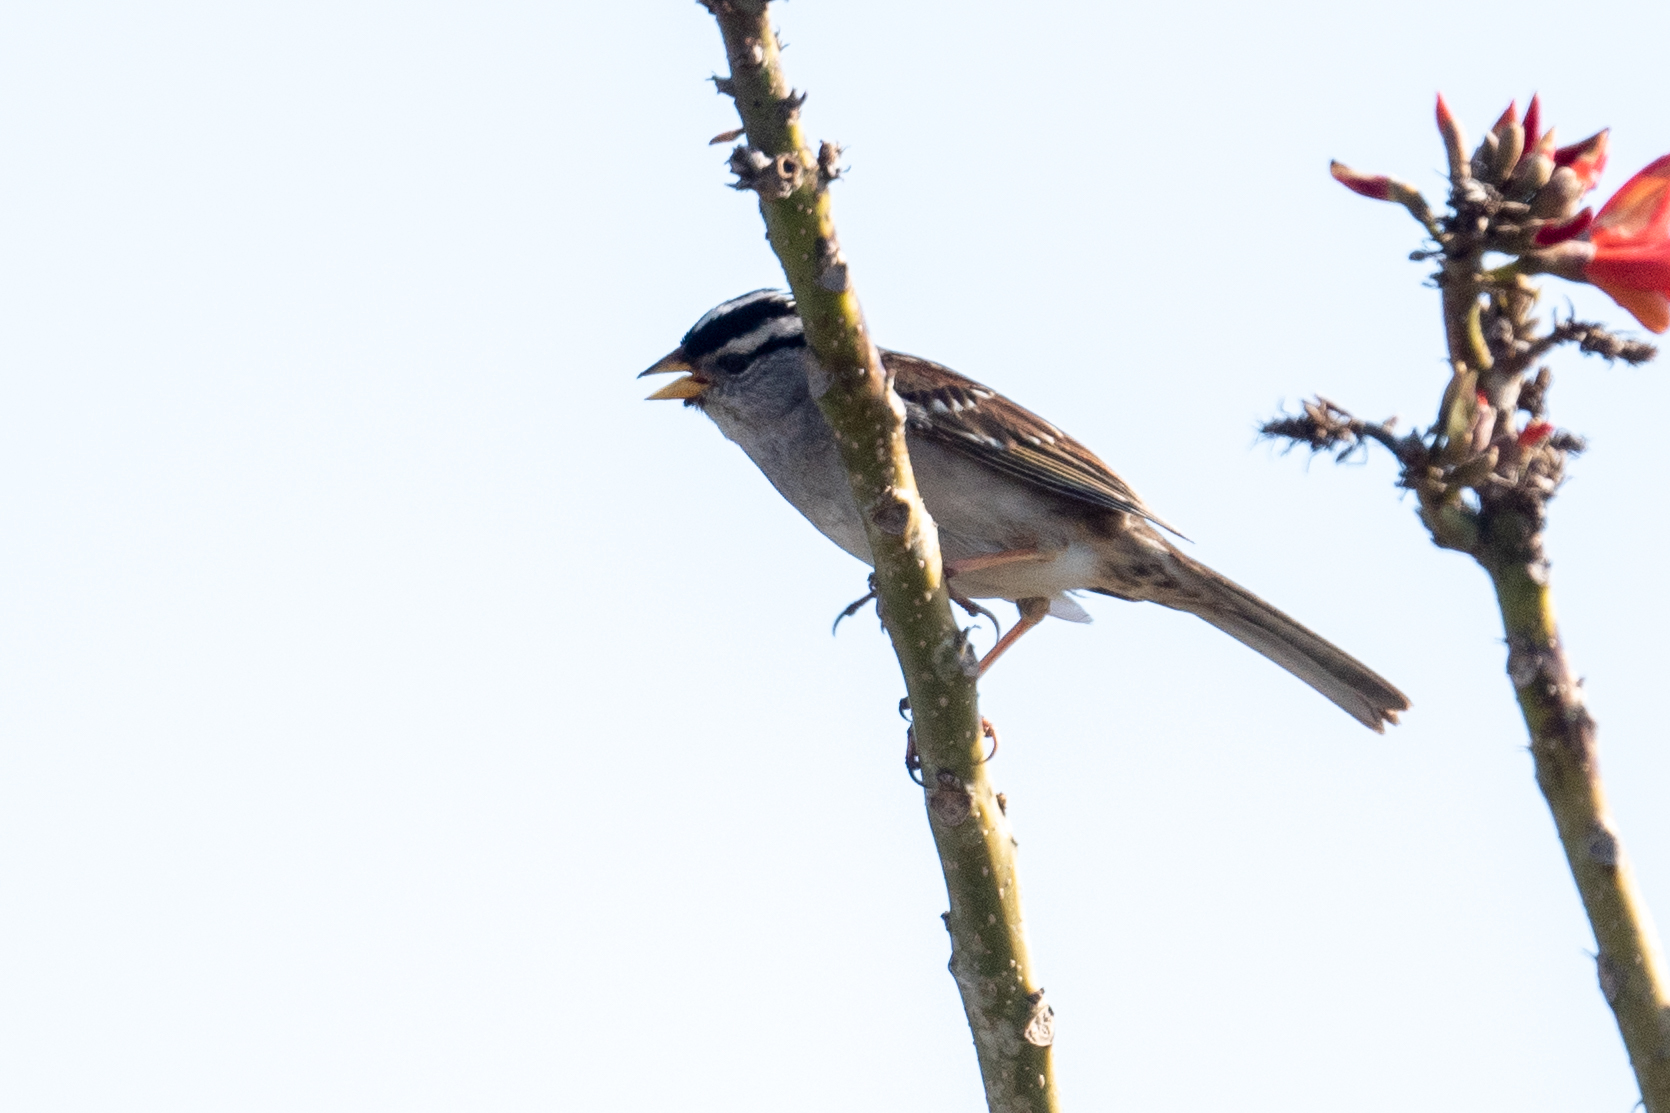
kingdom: Animalia
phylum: Chordata
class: Aves
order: Passeriformes
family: Passerellidae
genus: Zonotrichia
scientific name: Zonotrichia leucophrys
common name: White-crowned sparrow
